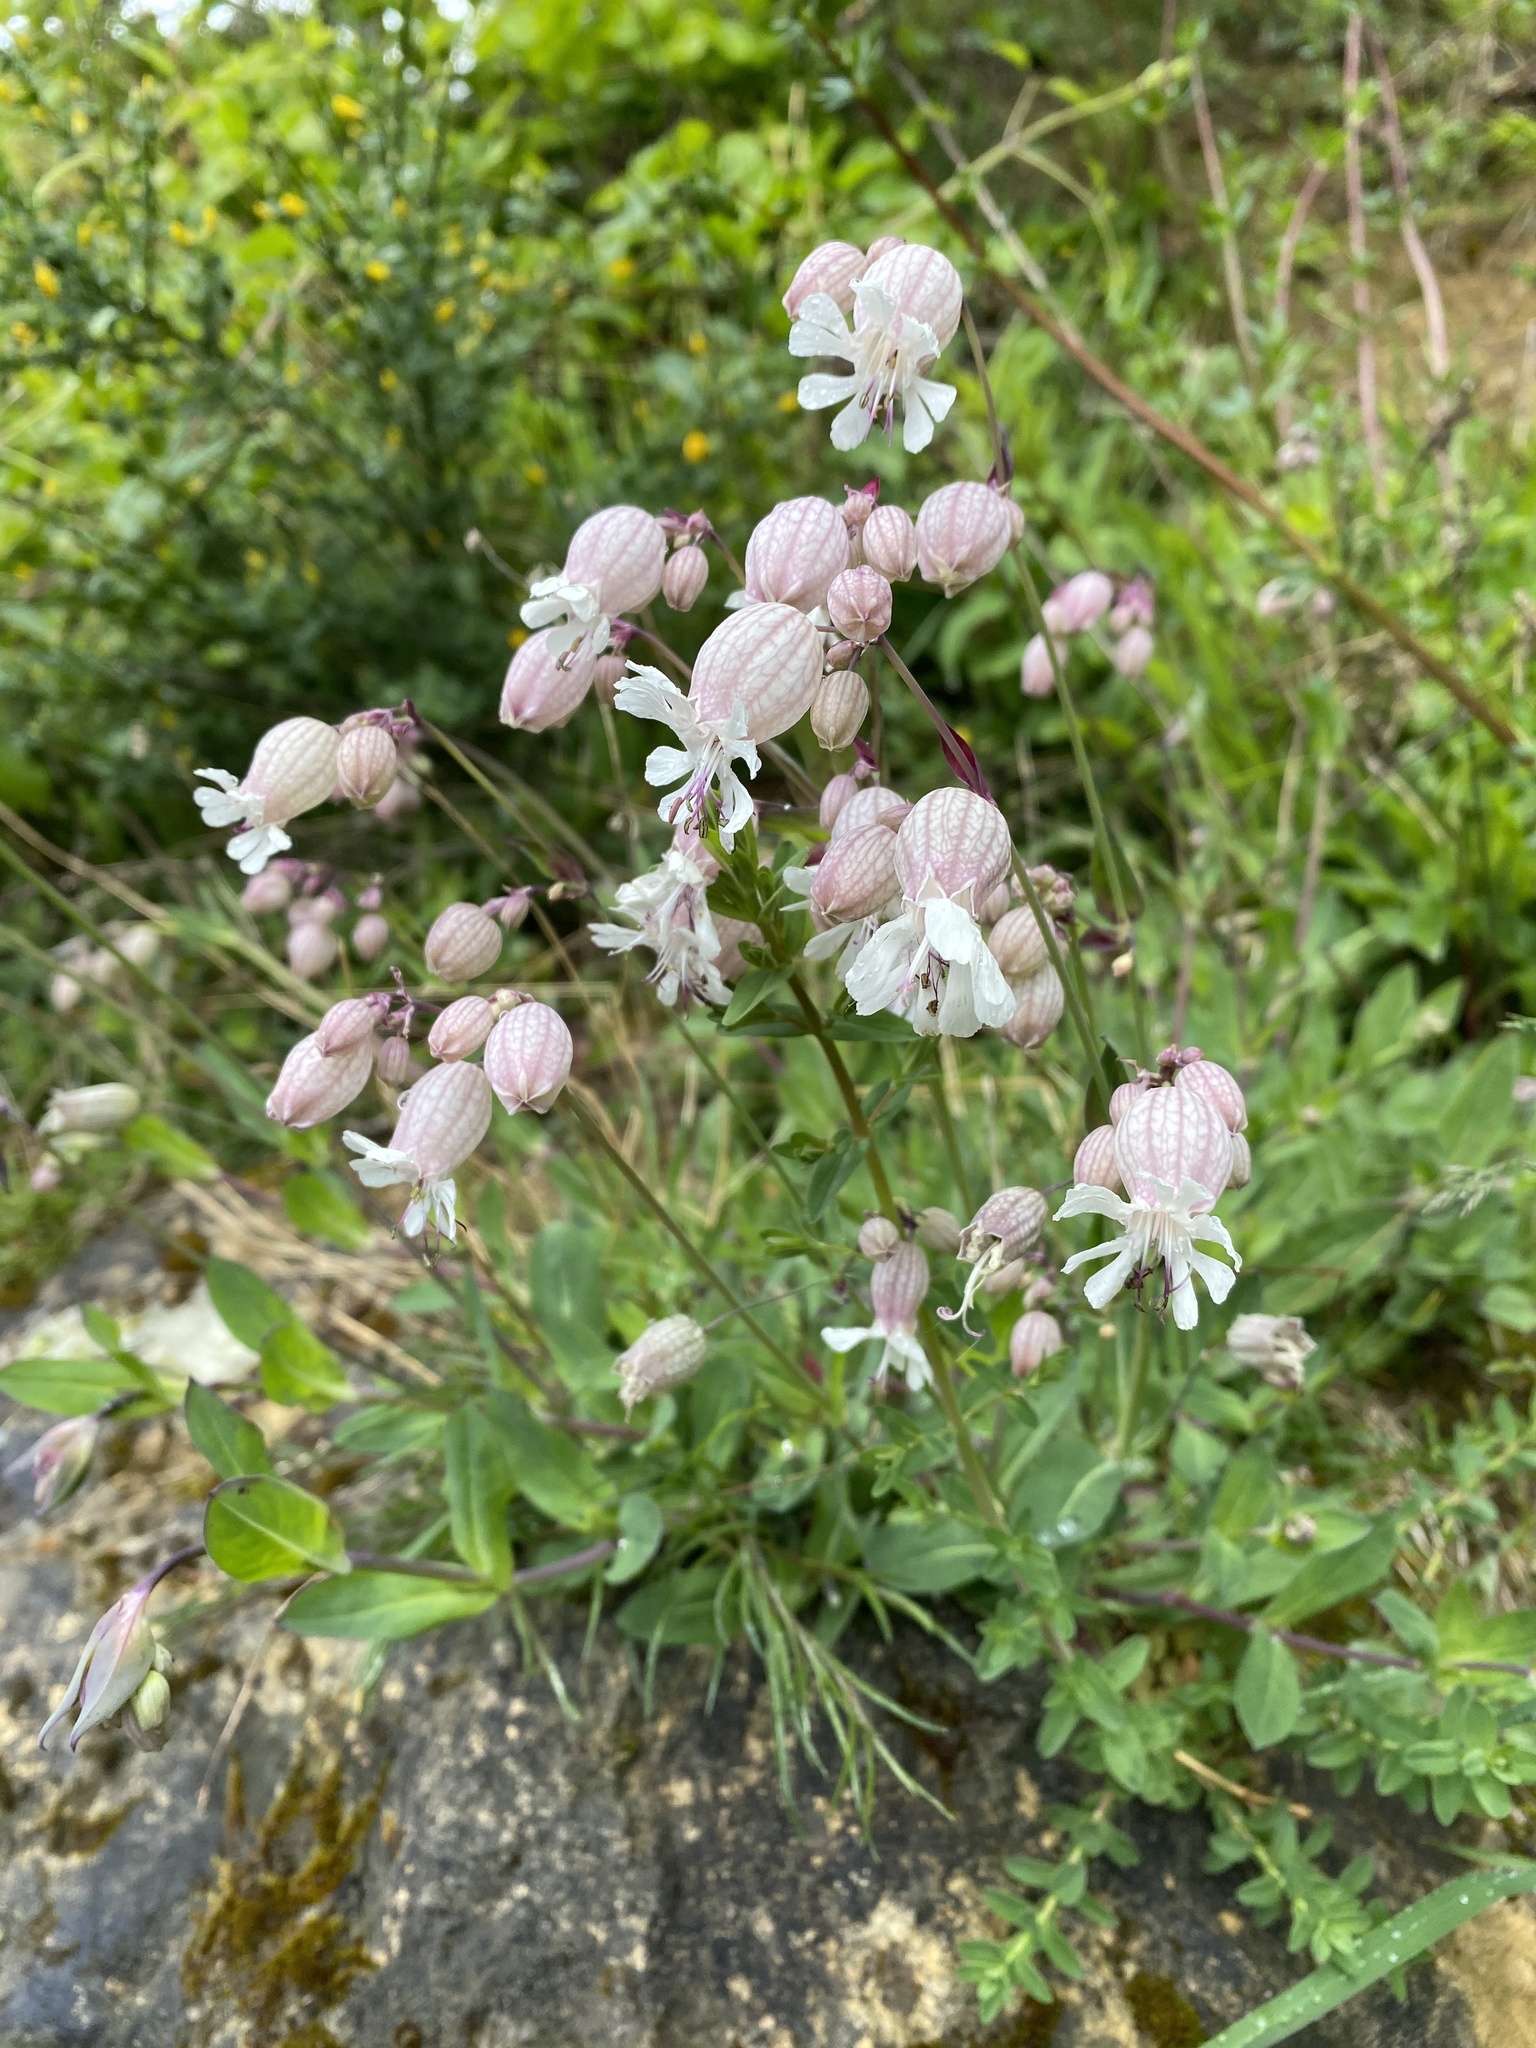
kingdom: Plantae
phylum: Tracheophyta
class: Magnoliopsida
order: Caryophyllales
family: Caryophyllaceae
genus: Silene
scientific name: Silene vulgaris
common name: Bladder campion
